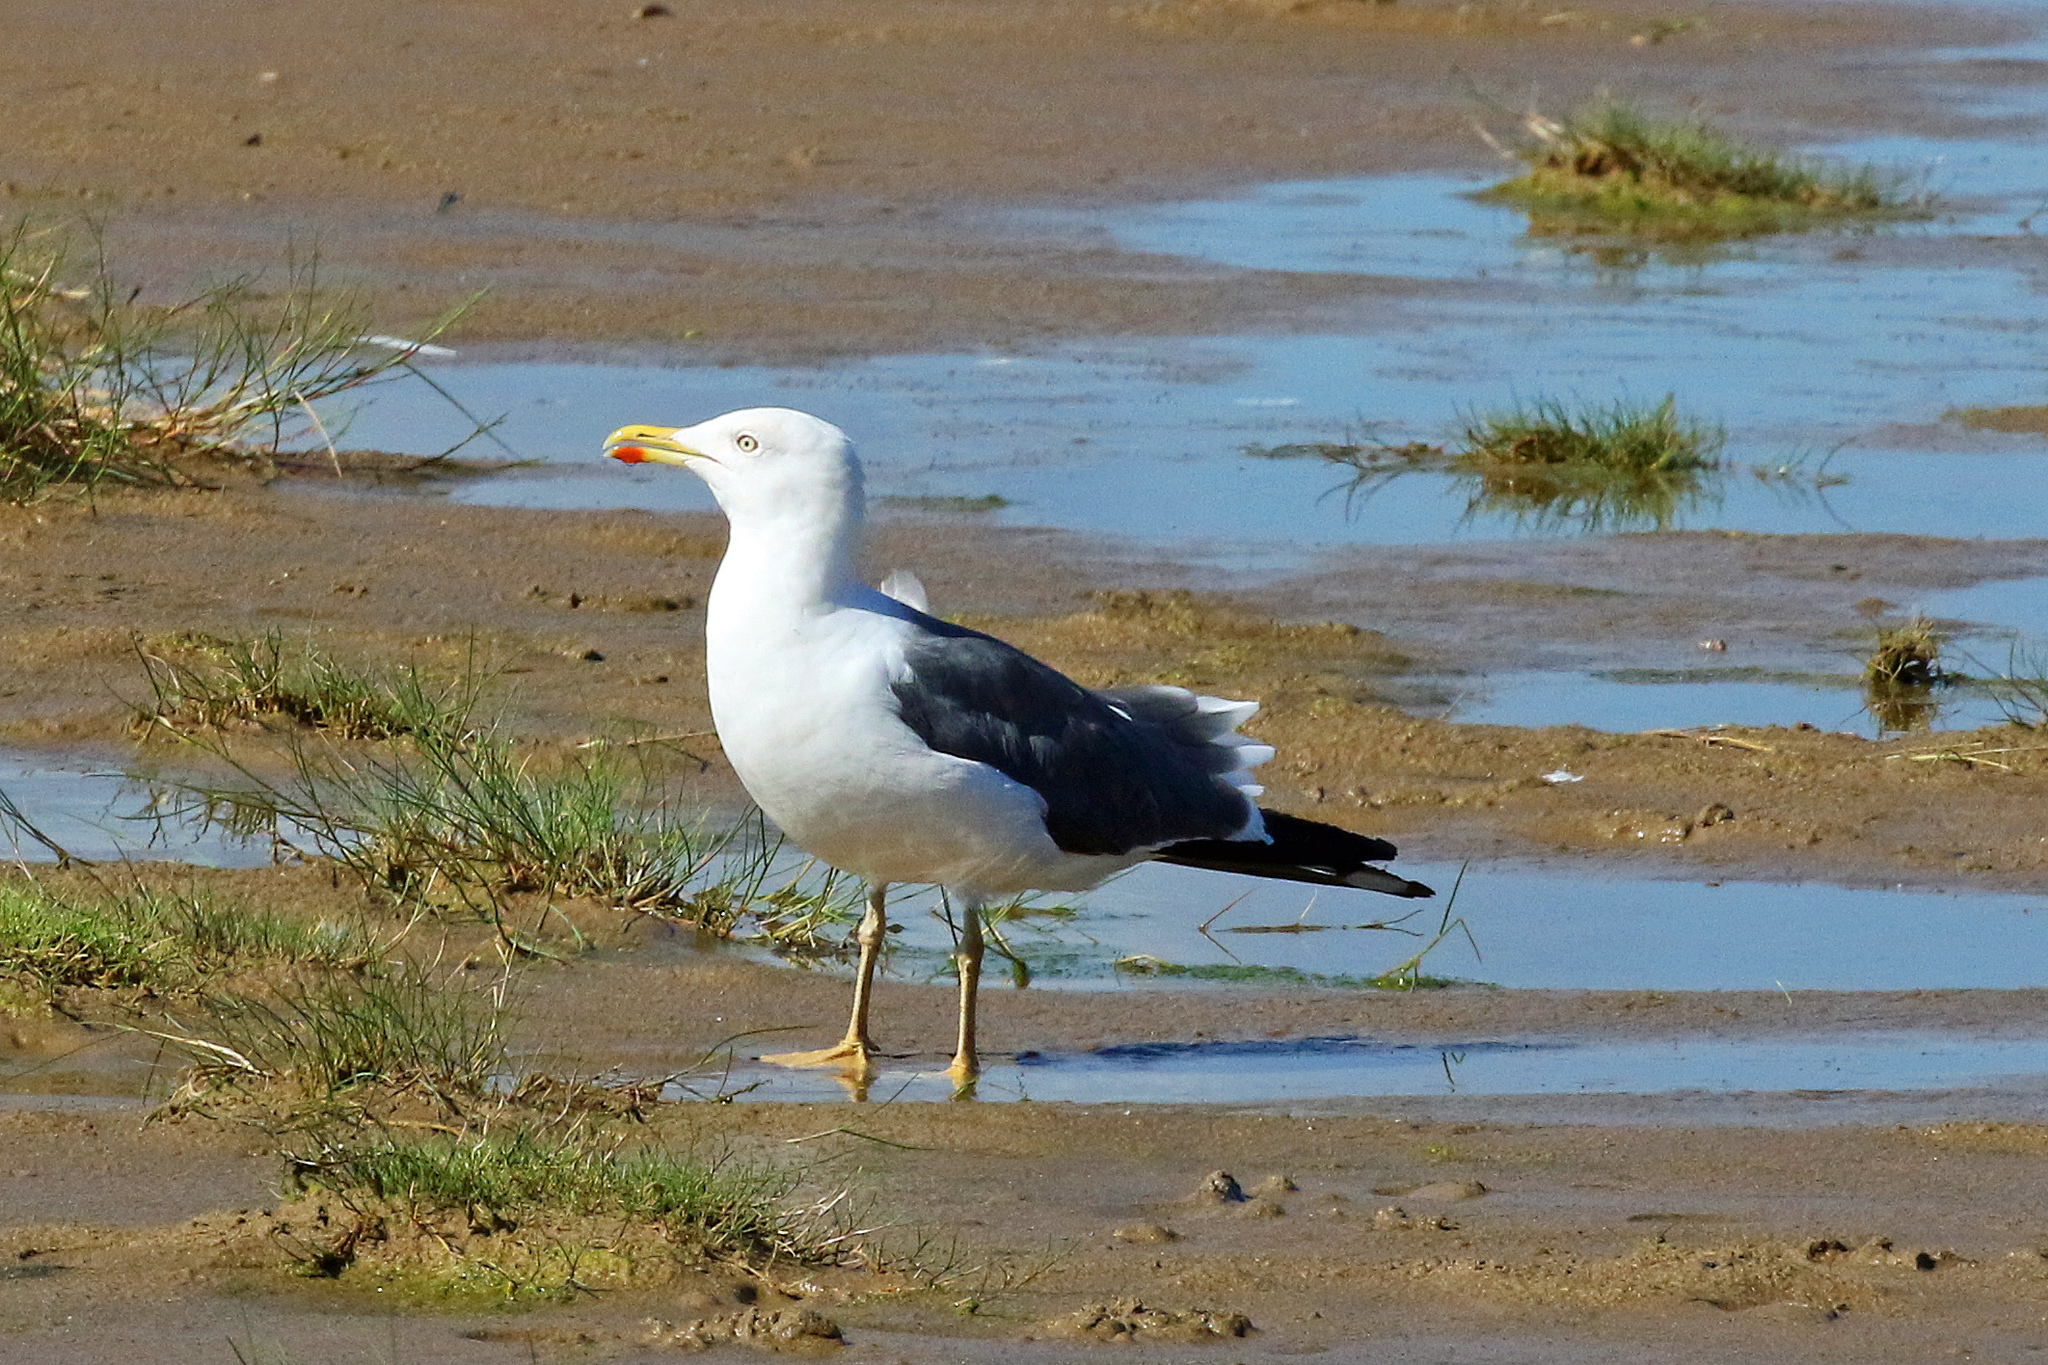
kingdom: Animalia
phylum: Chordata
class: Aves
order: Charadriiformes
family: Laridae
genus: Larus
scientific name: Larus fuscus
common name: Lesser black-backed gull
